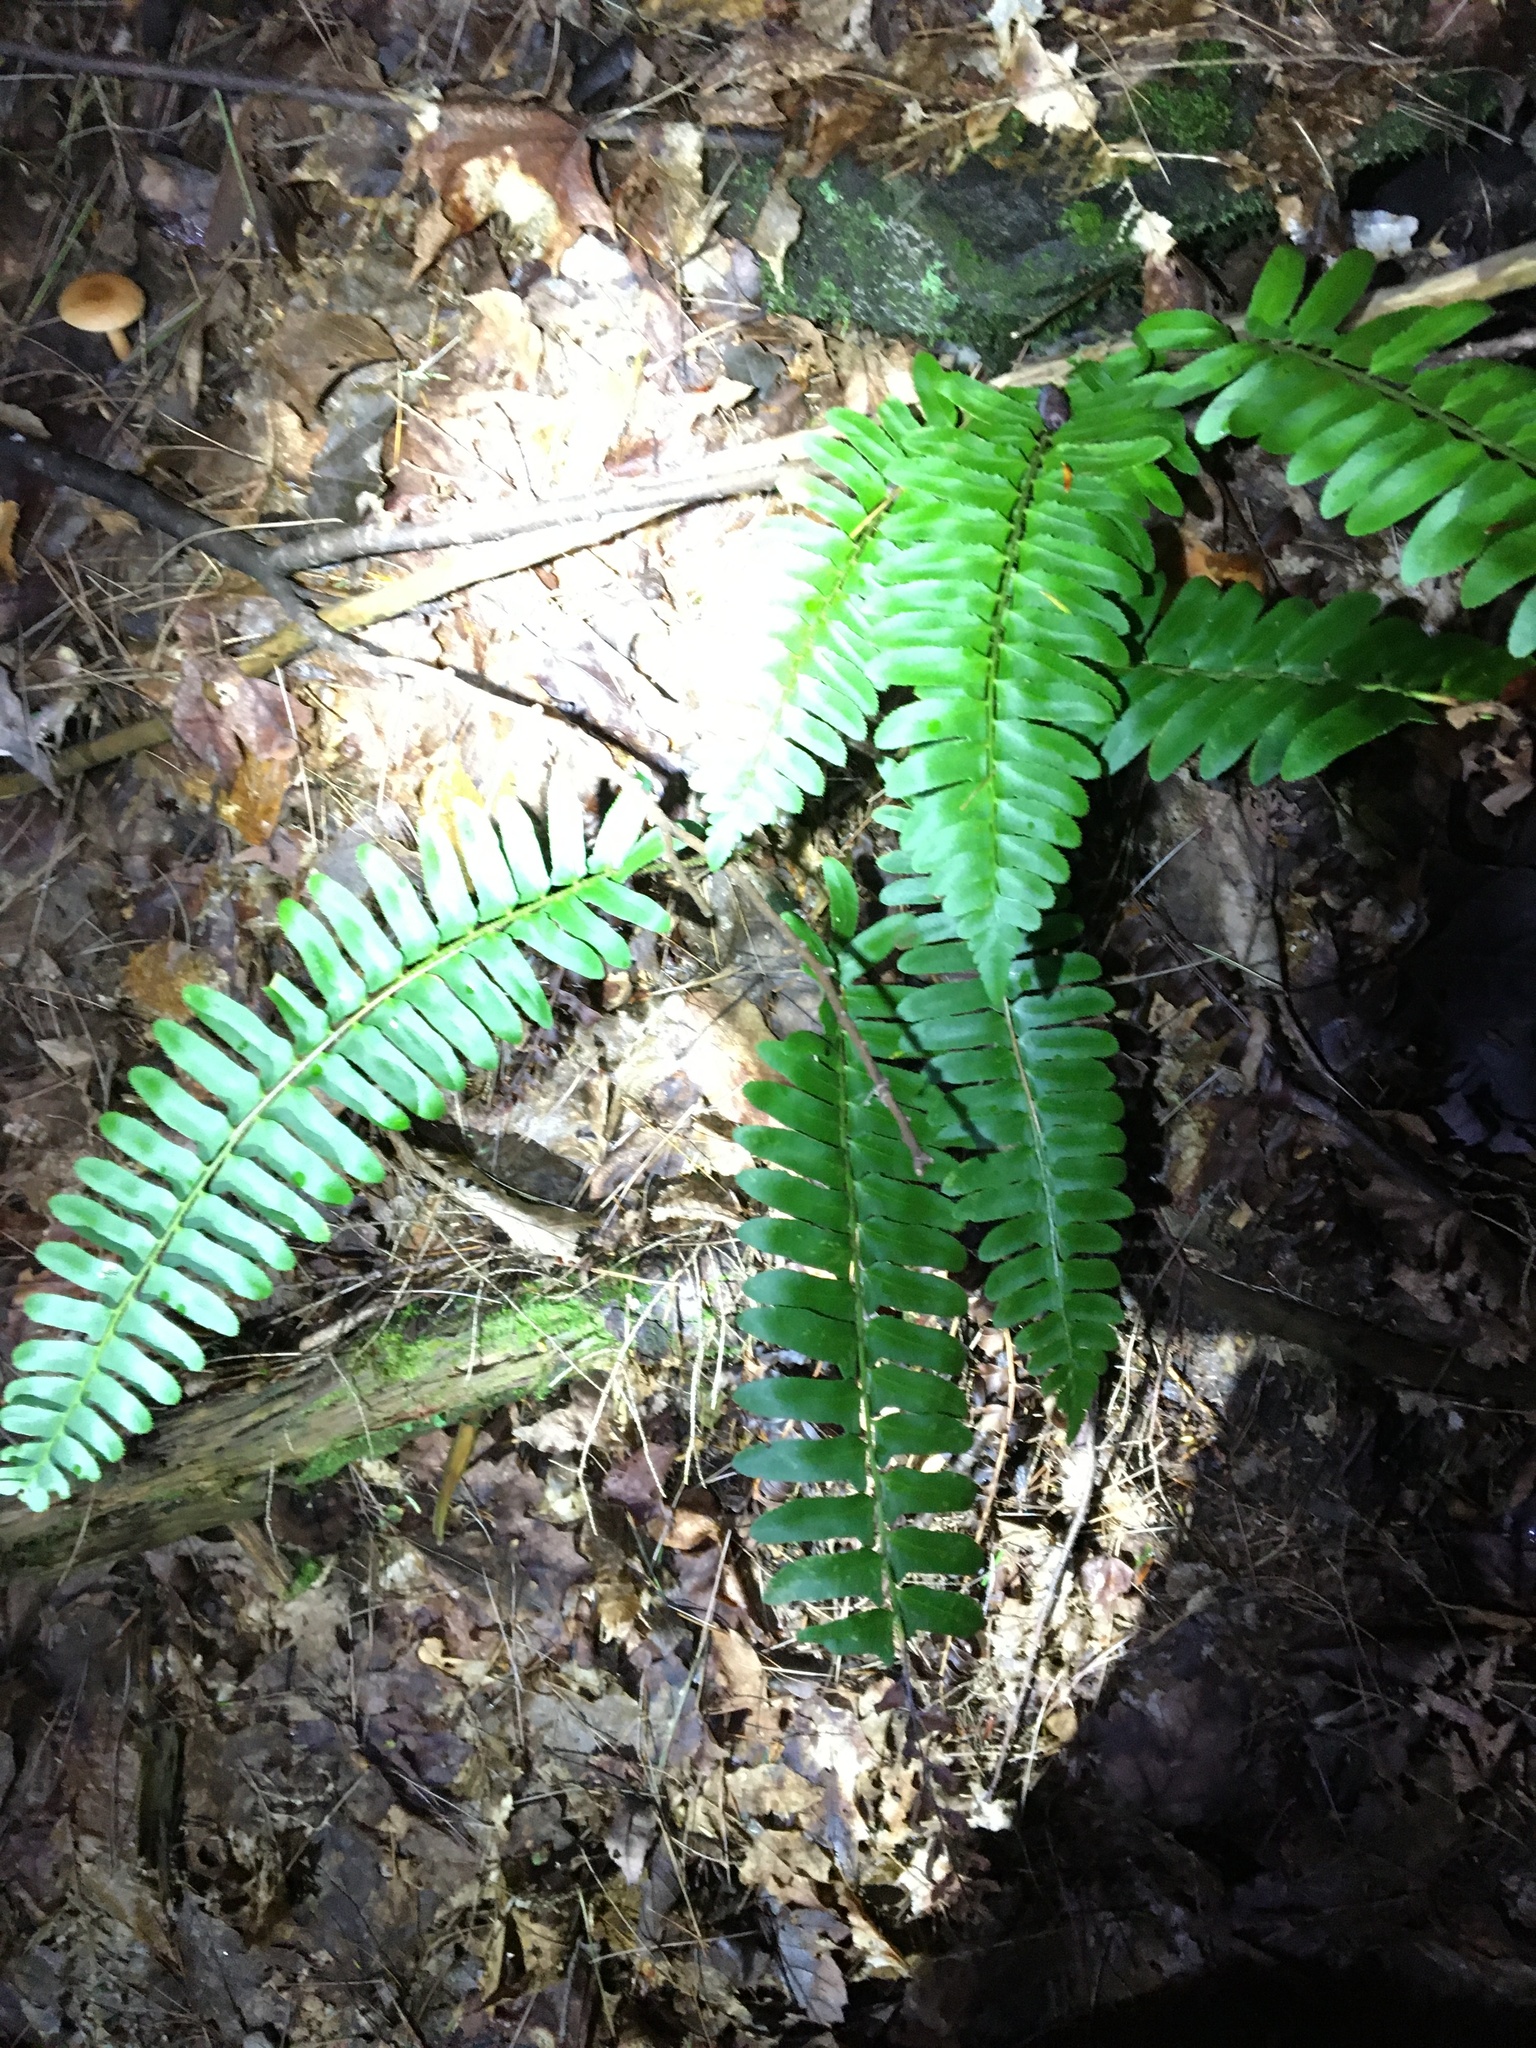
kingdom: Plantae
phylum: Tracheophyta
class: Polypodiopsida
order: Polypodiales
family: Dryopteridaceae
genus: Polystichum
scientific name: Polystichum acrostichoides
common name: Christmas fern
